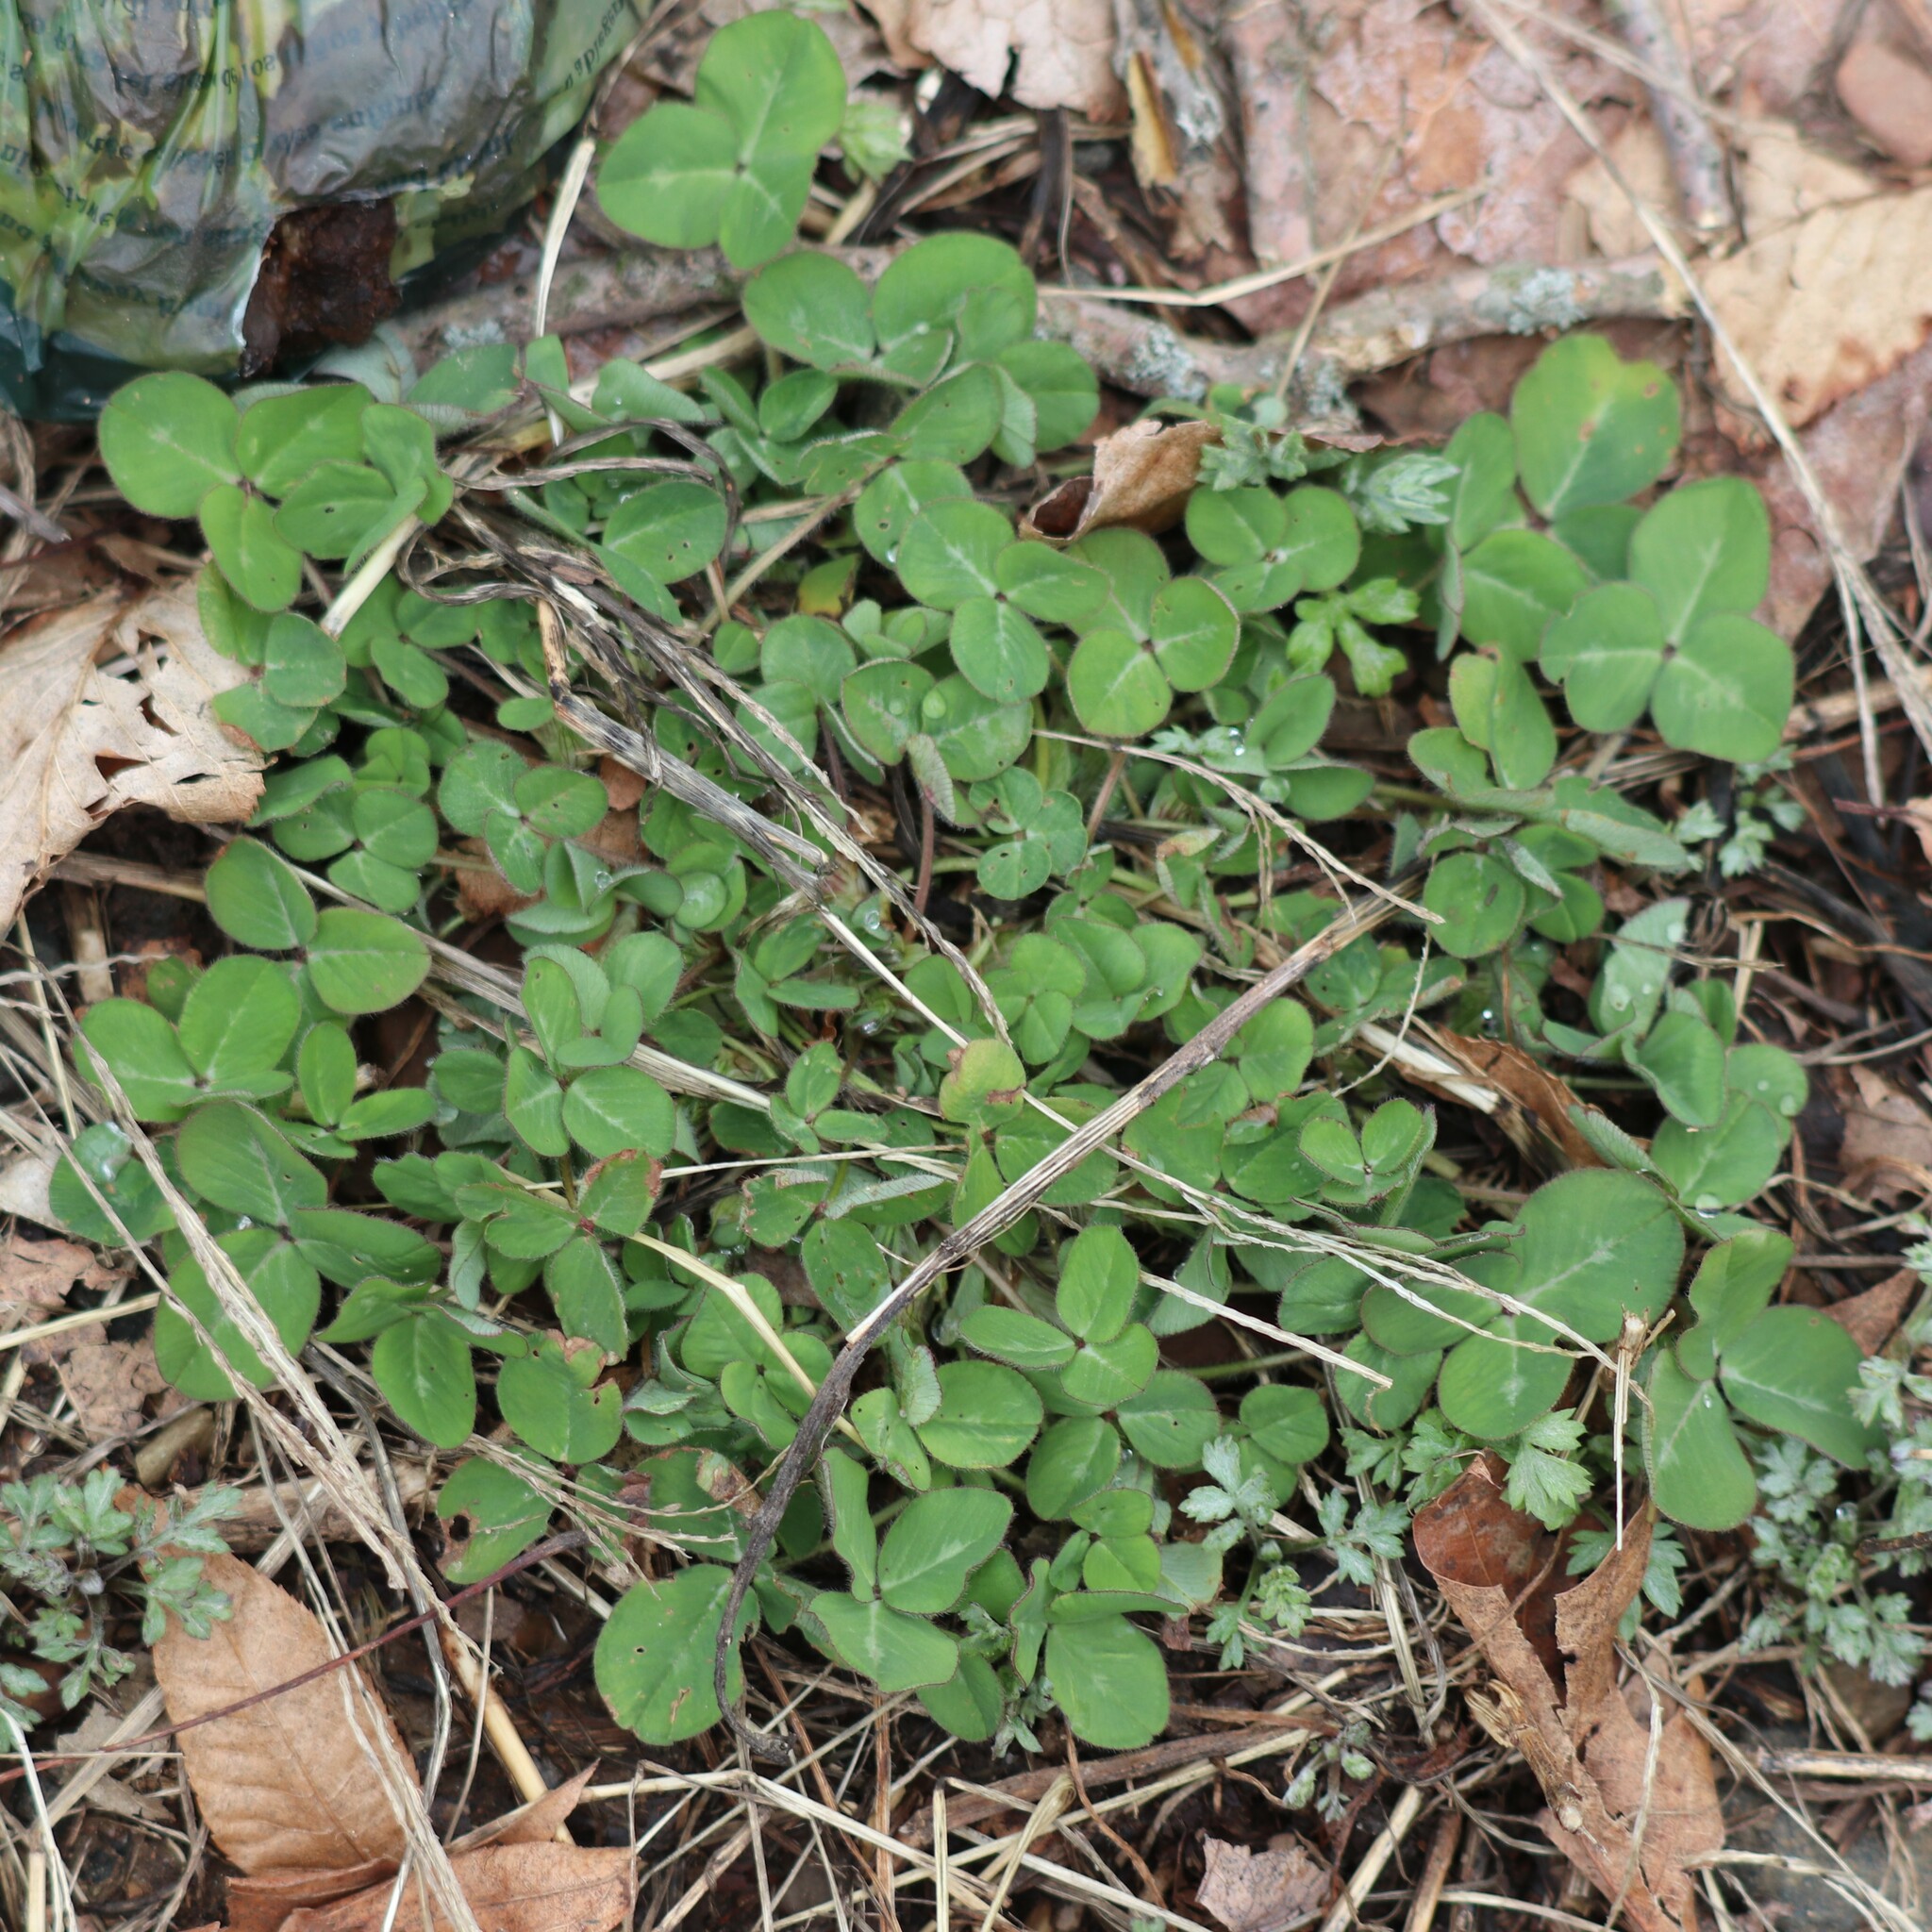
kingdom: Plantae
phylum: Tracheophyta
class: Magnoliopsida
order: Fabales
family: Fabaceae
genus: Trifolium
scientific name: Trifolium pratense
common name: Red clover
